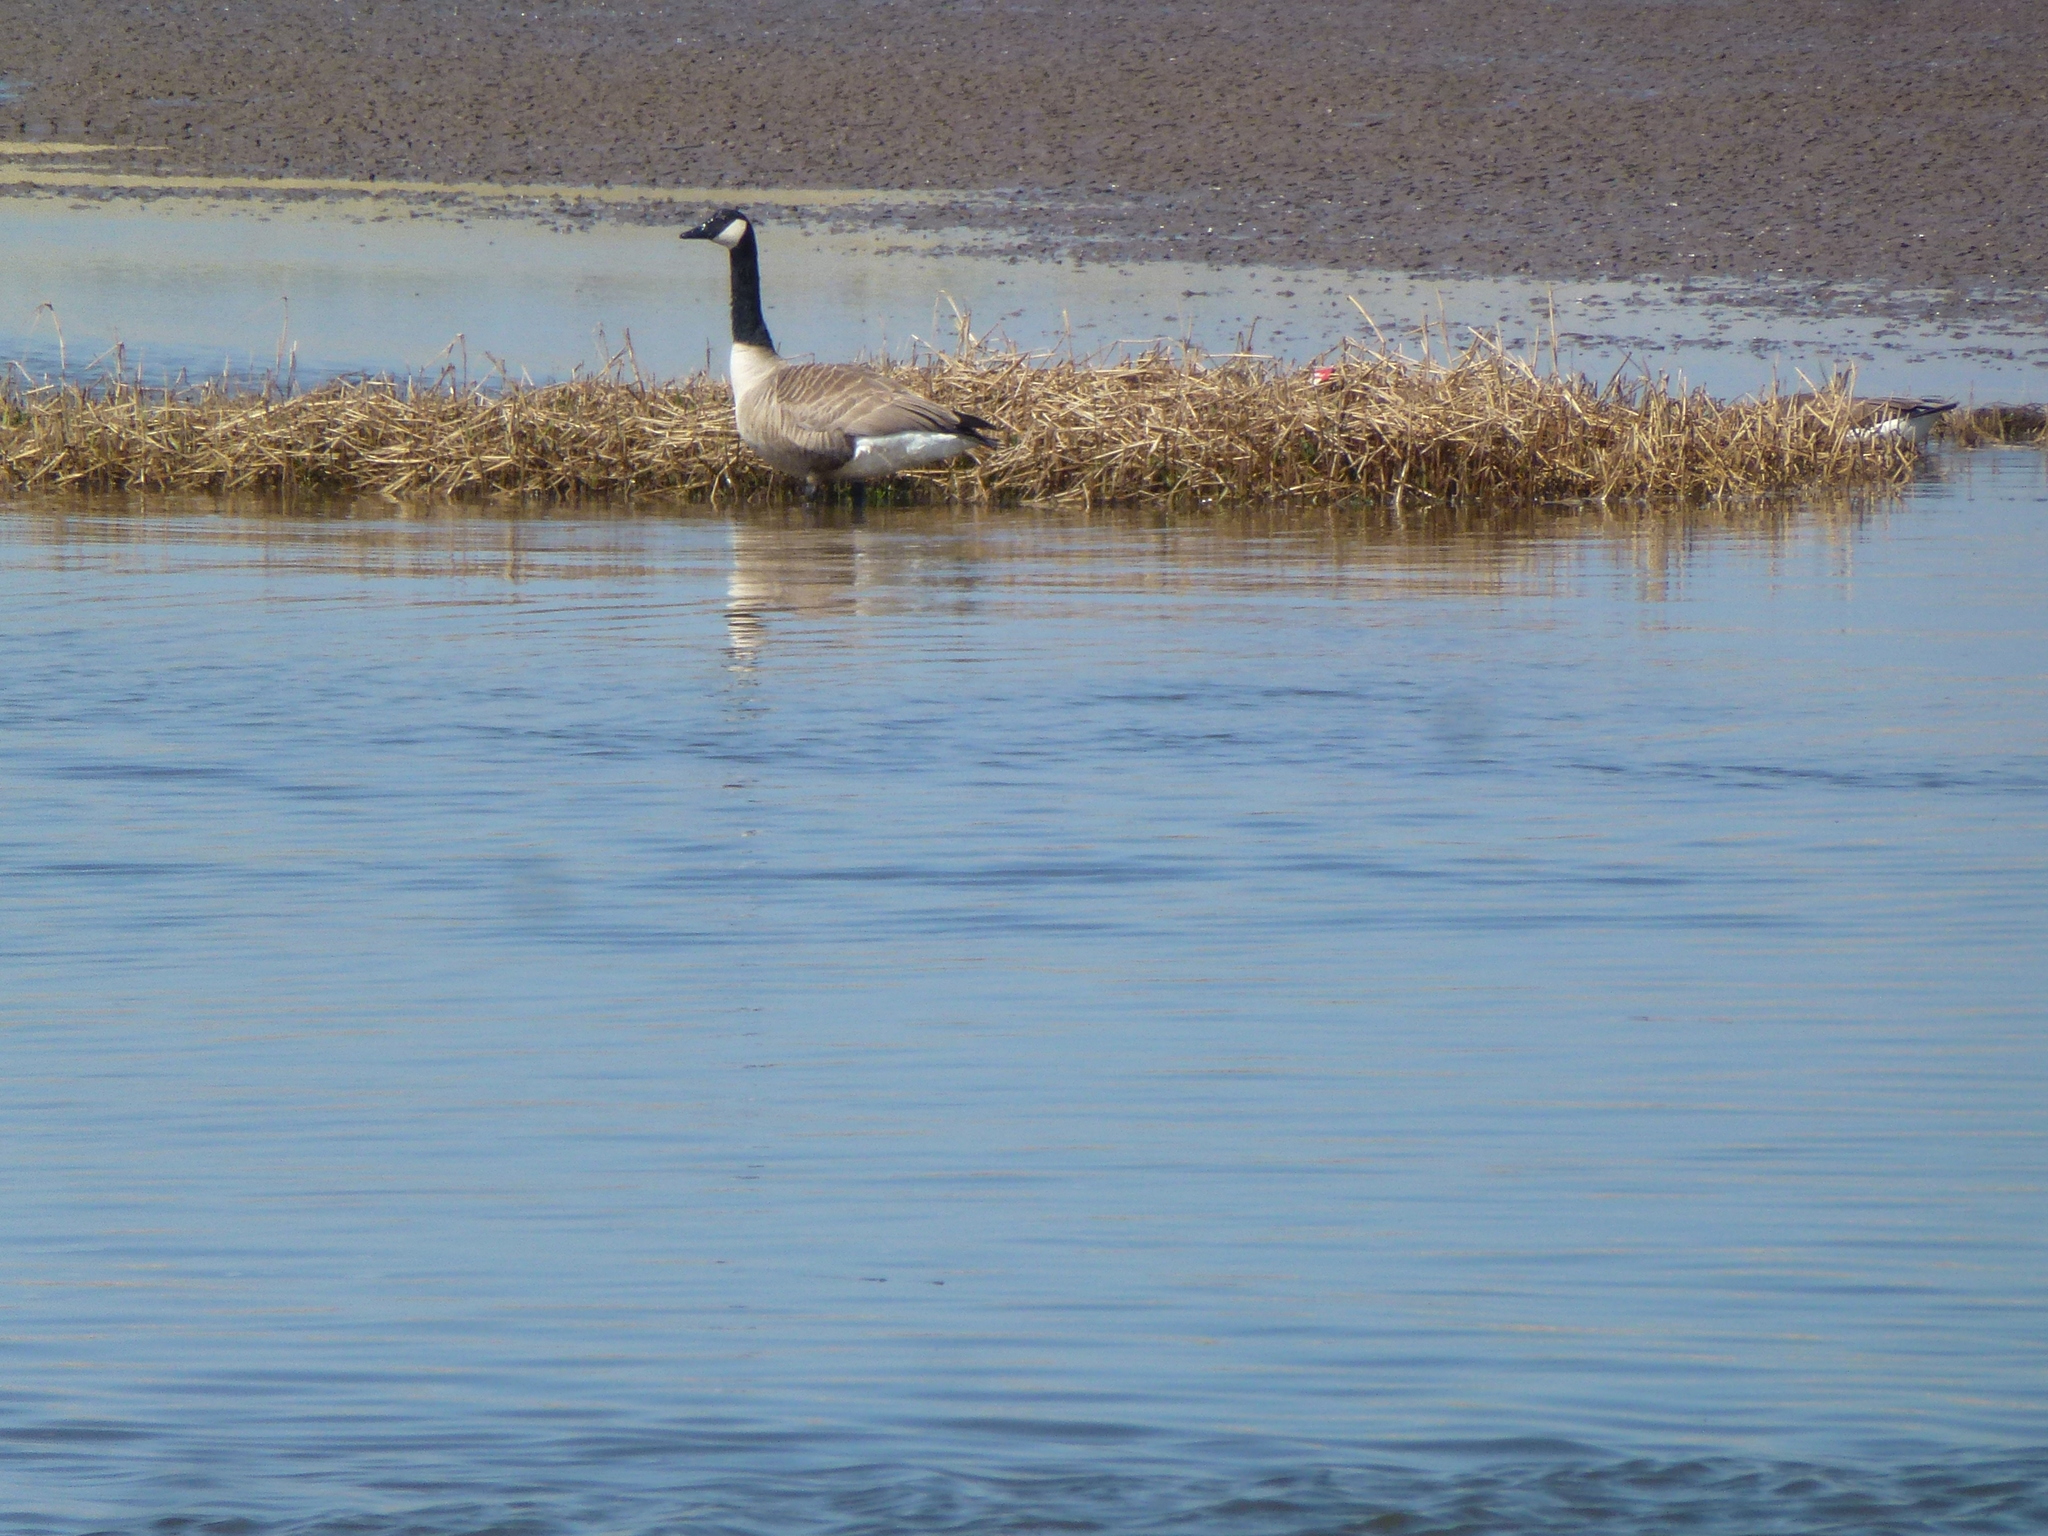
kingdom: Animalia
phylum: Chordata
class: Aves
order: Anseriformes
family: Anatidae
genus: Branta
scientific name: Branta canadensis
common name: Canada goose
